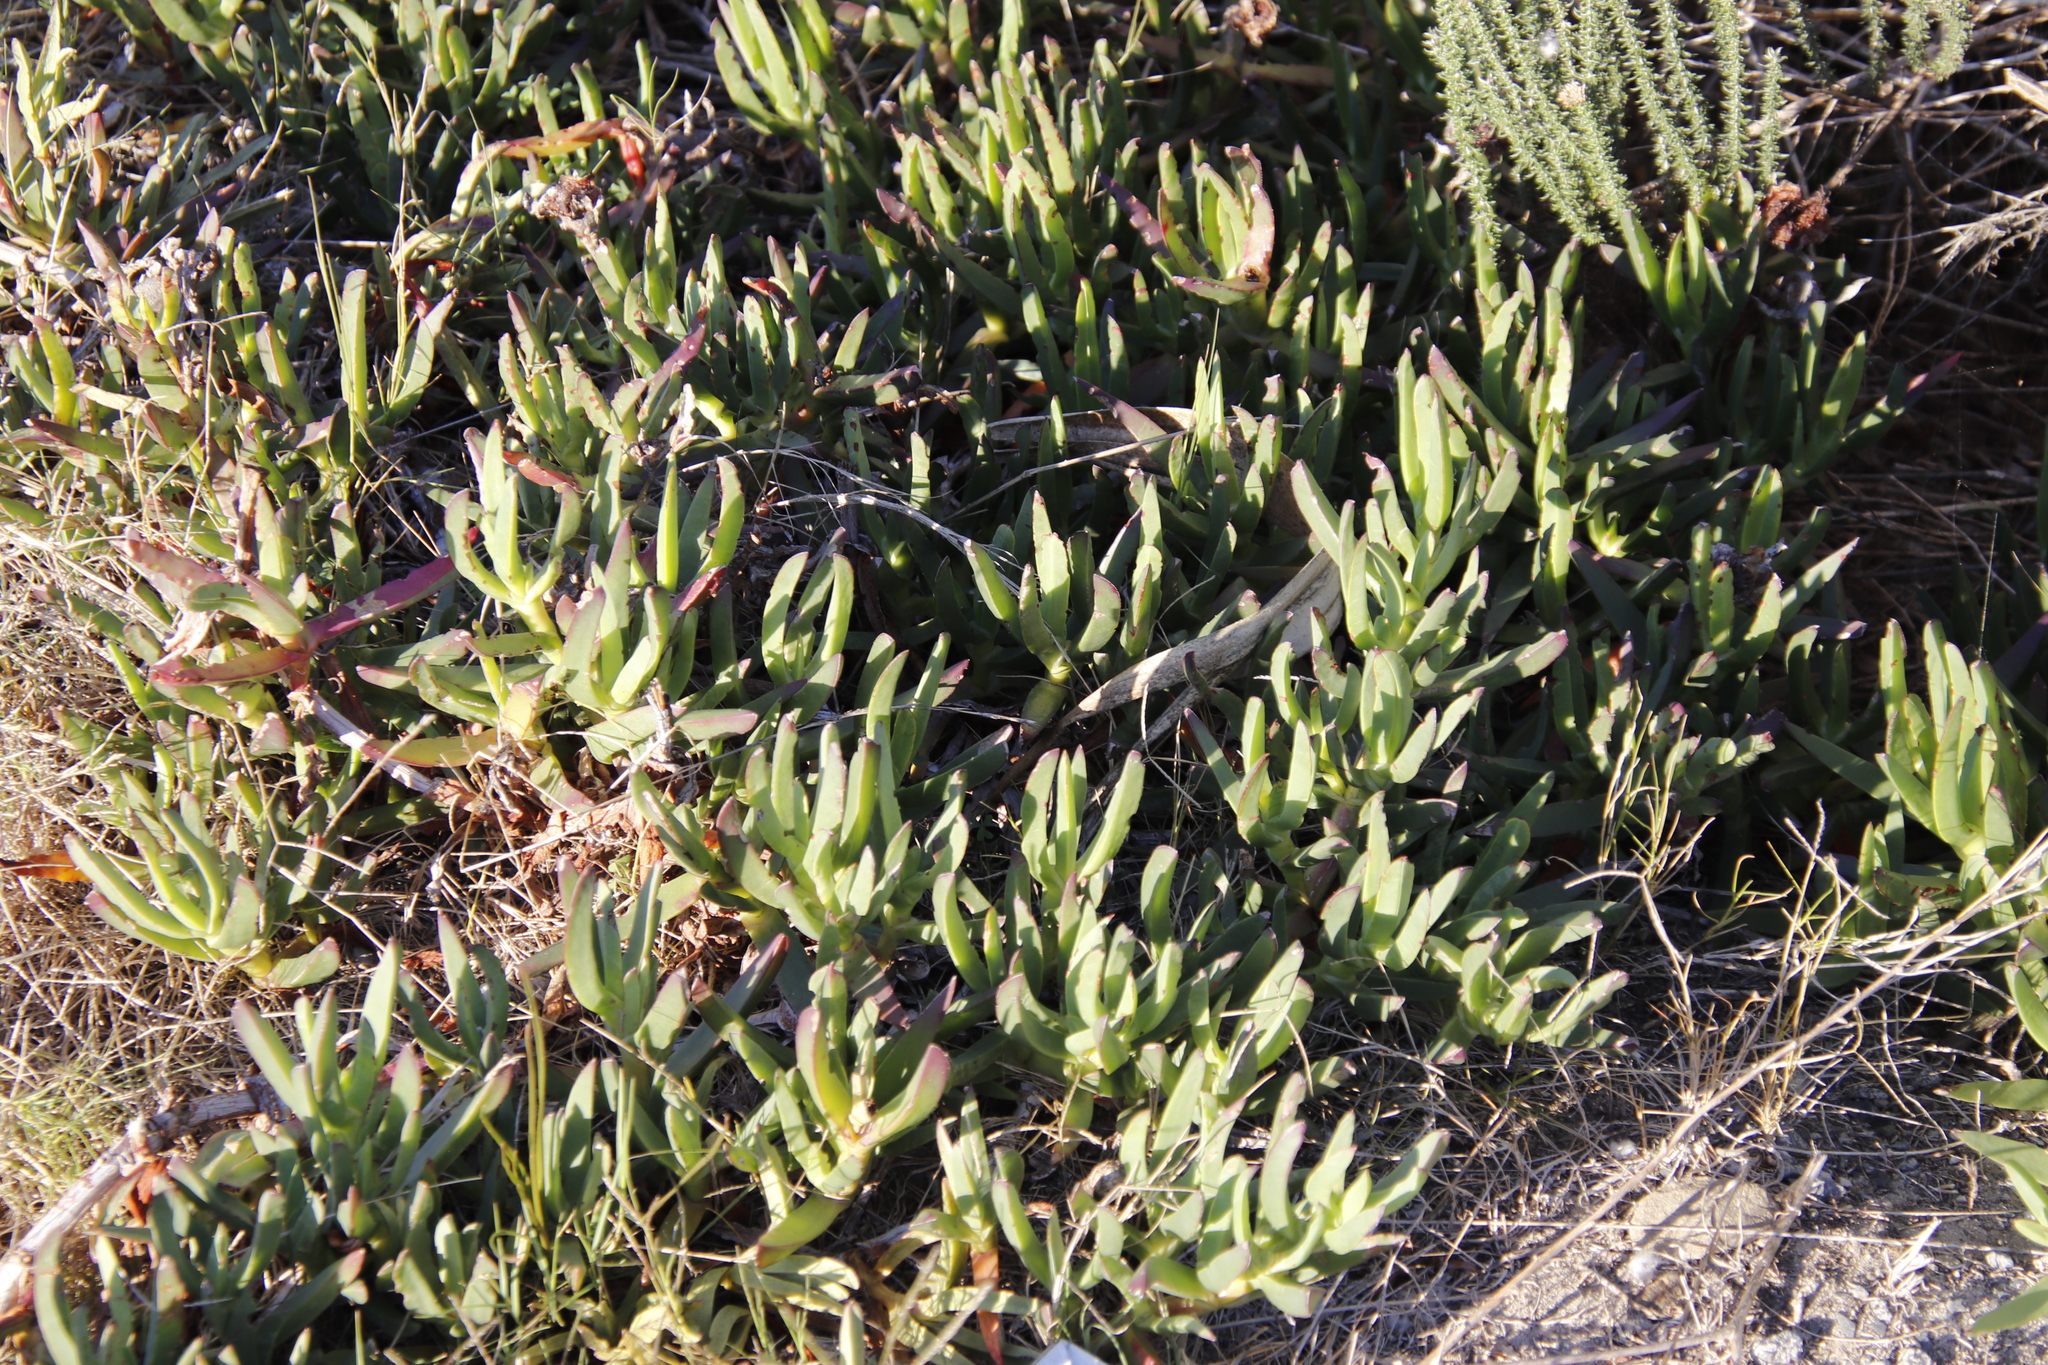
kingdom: Plantae
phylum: Tracheophyta
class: Magnoliopsida
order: Caryophyllales
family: Aizoaceae
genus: Carpobrotus
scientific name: Carpobrotus edulis
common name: Hottentot-fig
